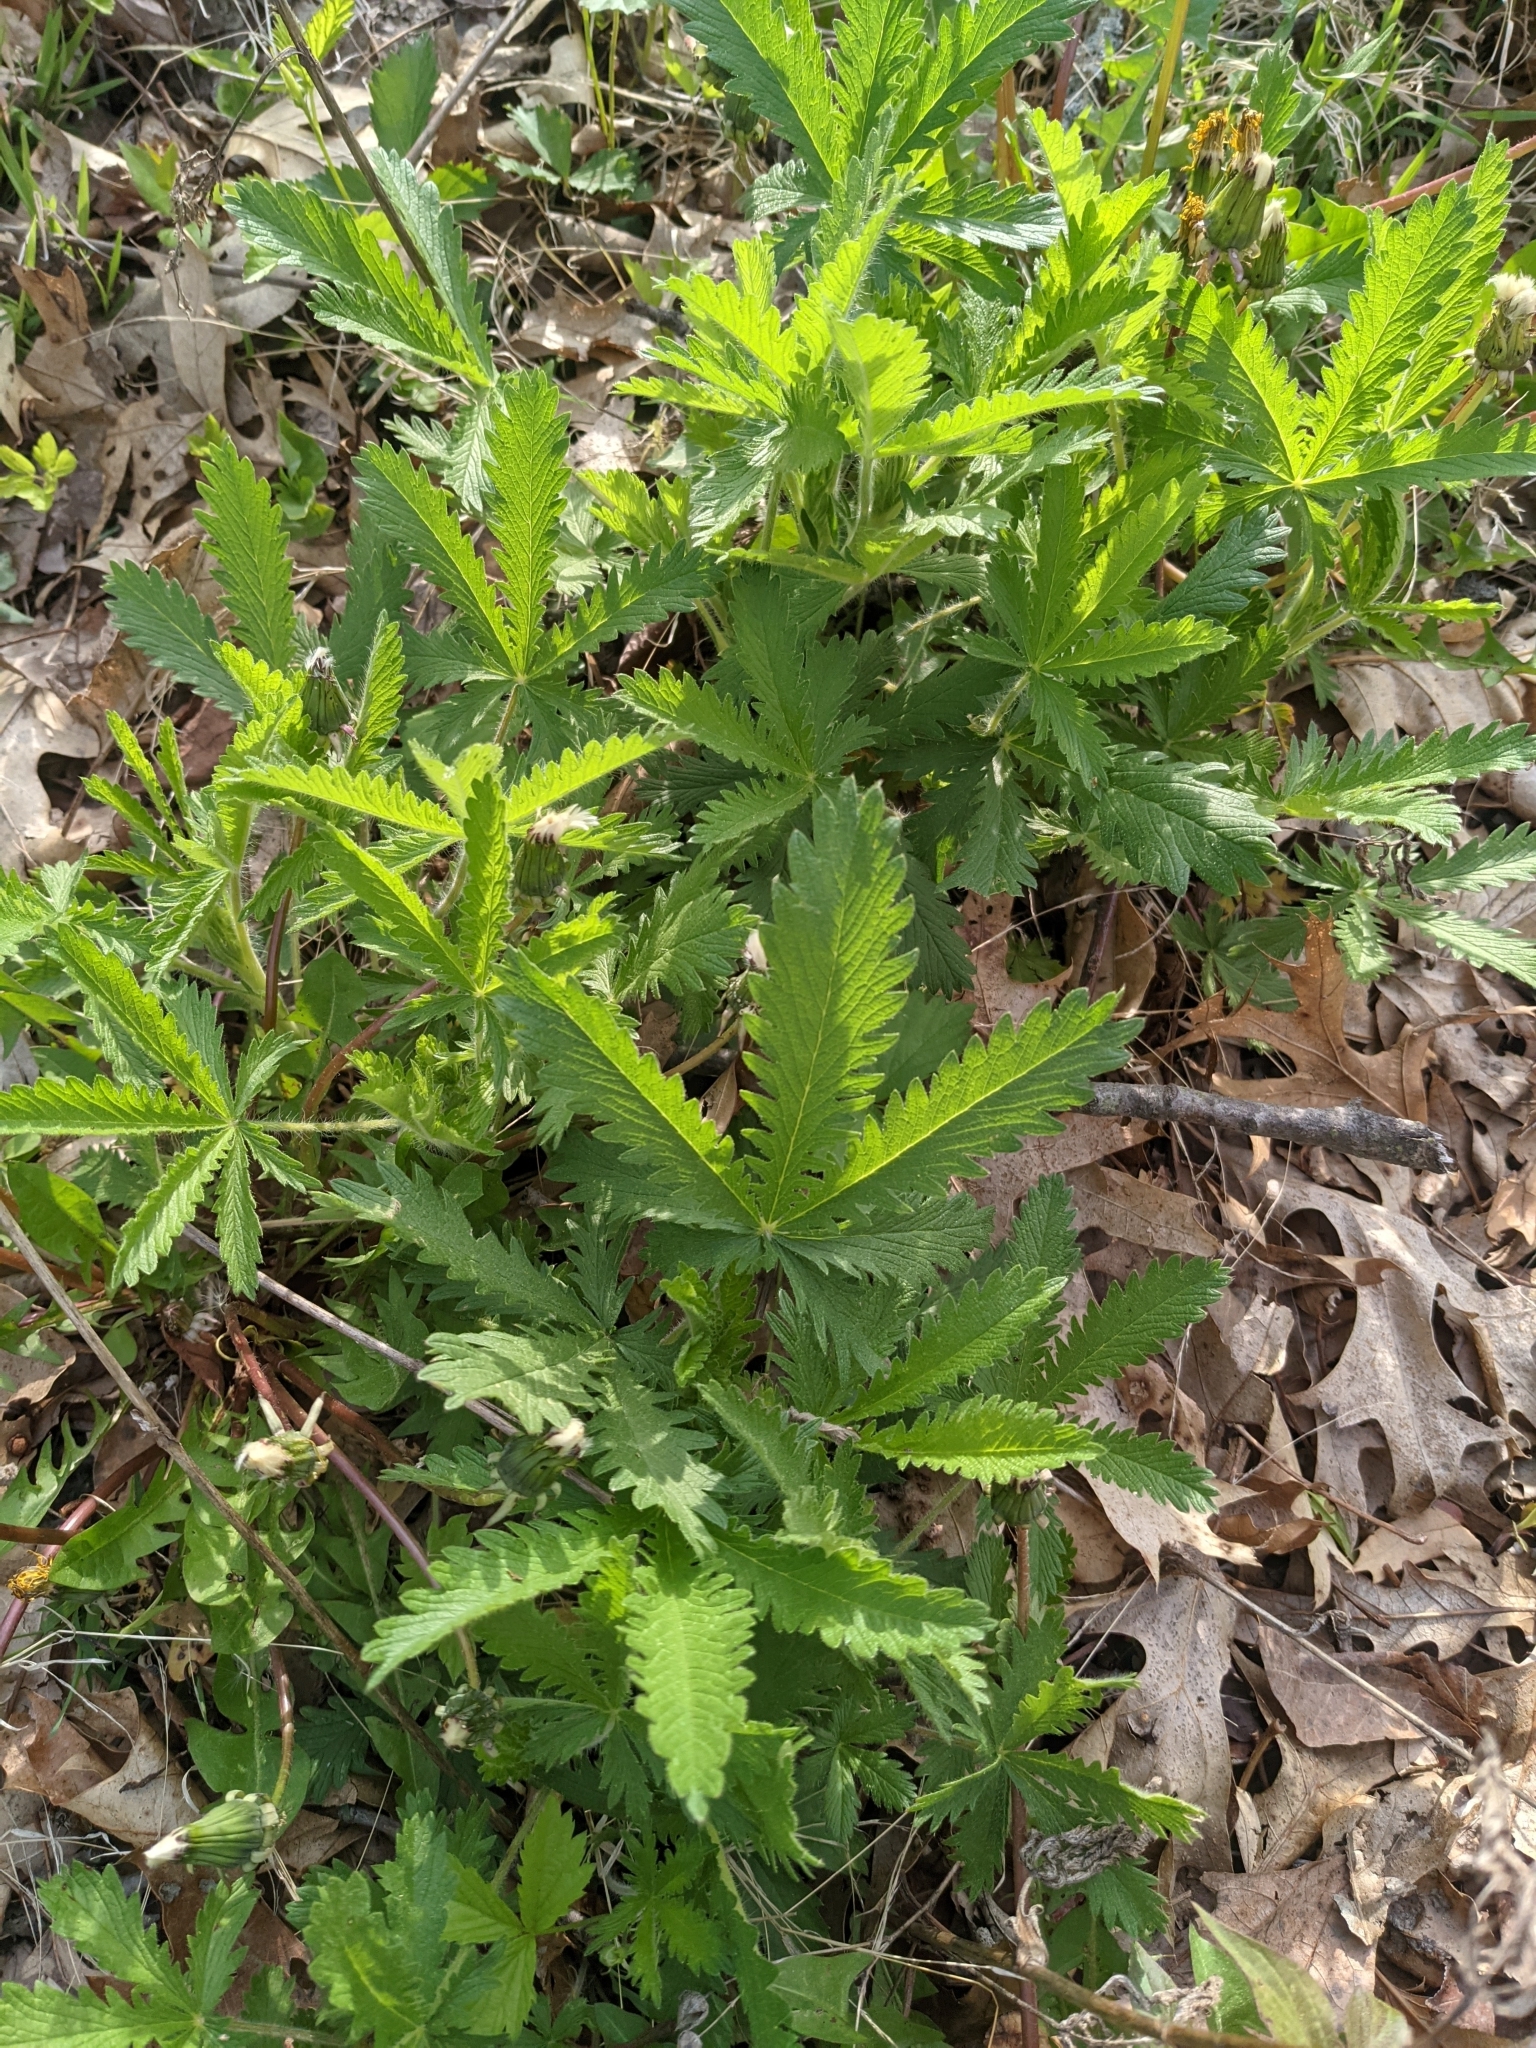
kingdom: Plantae
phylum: Tracheophyta
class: Magnoliopsida
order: Rosales
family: Rosaceae
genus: Potentilla
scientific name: Potentilla recta
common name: Sulphur cinquefoil
